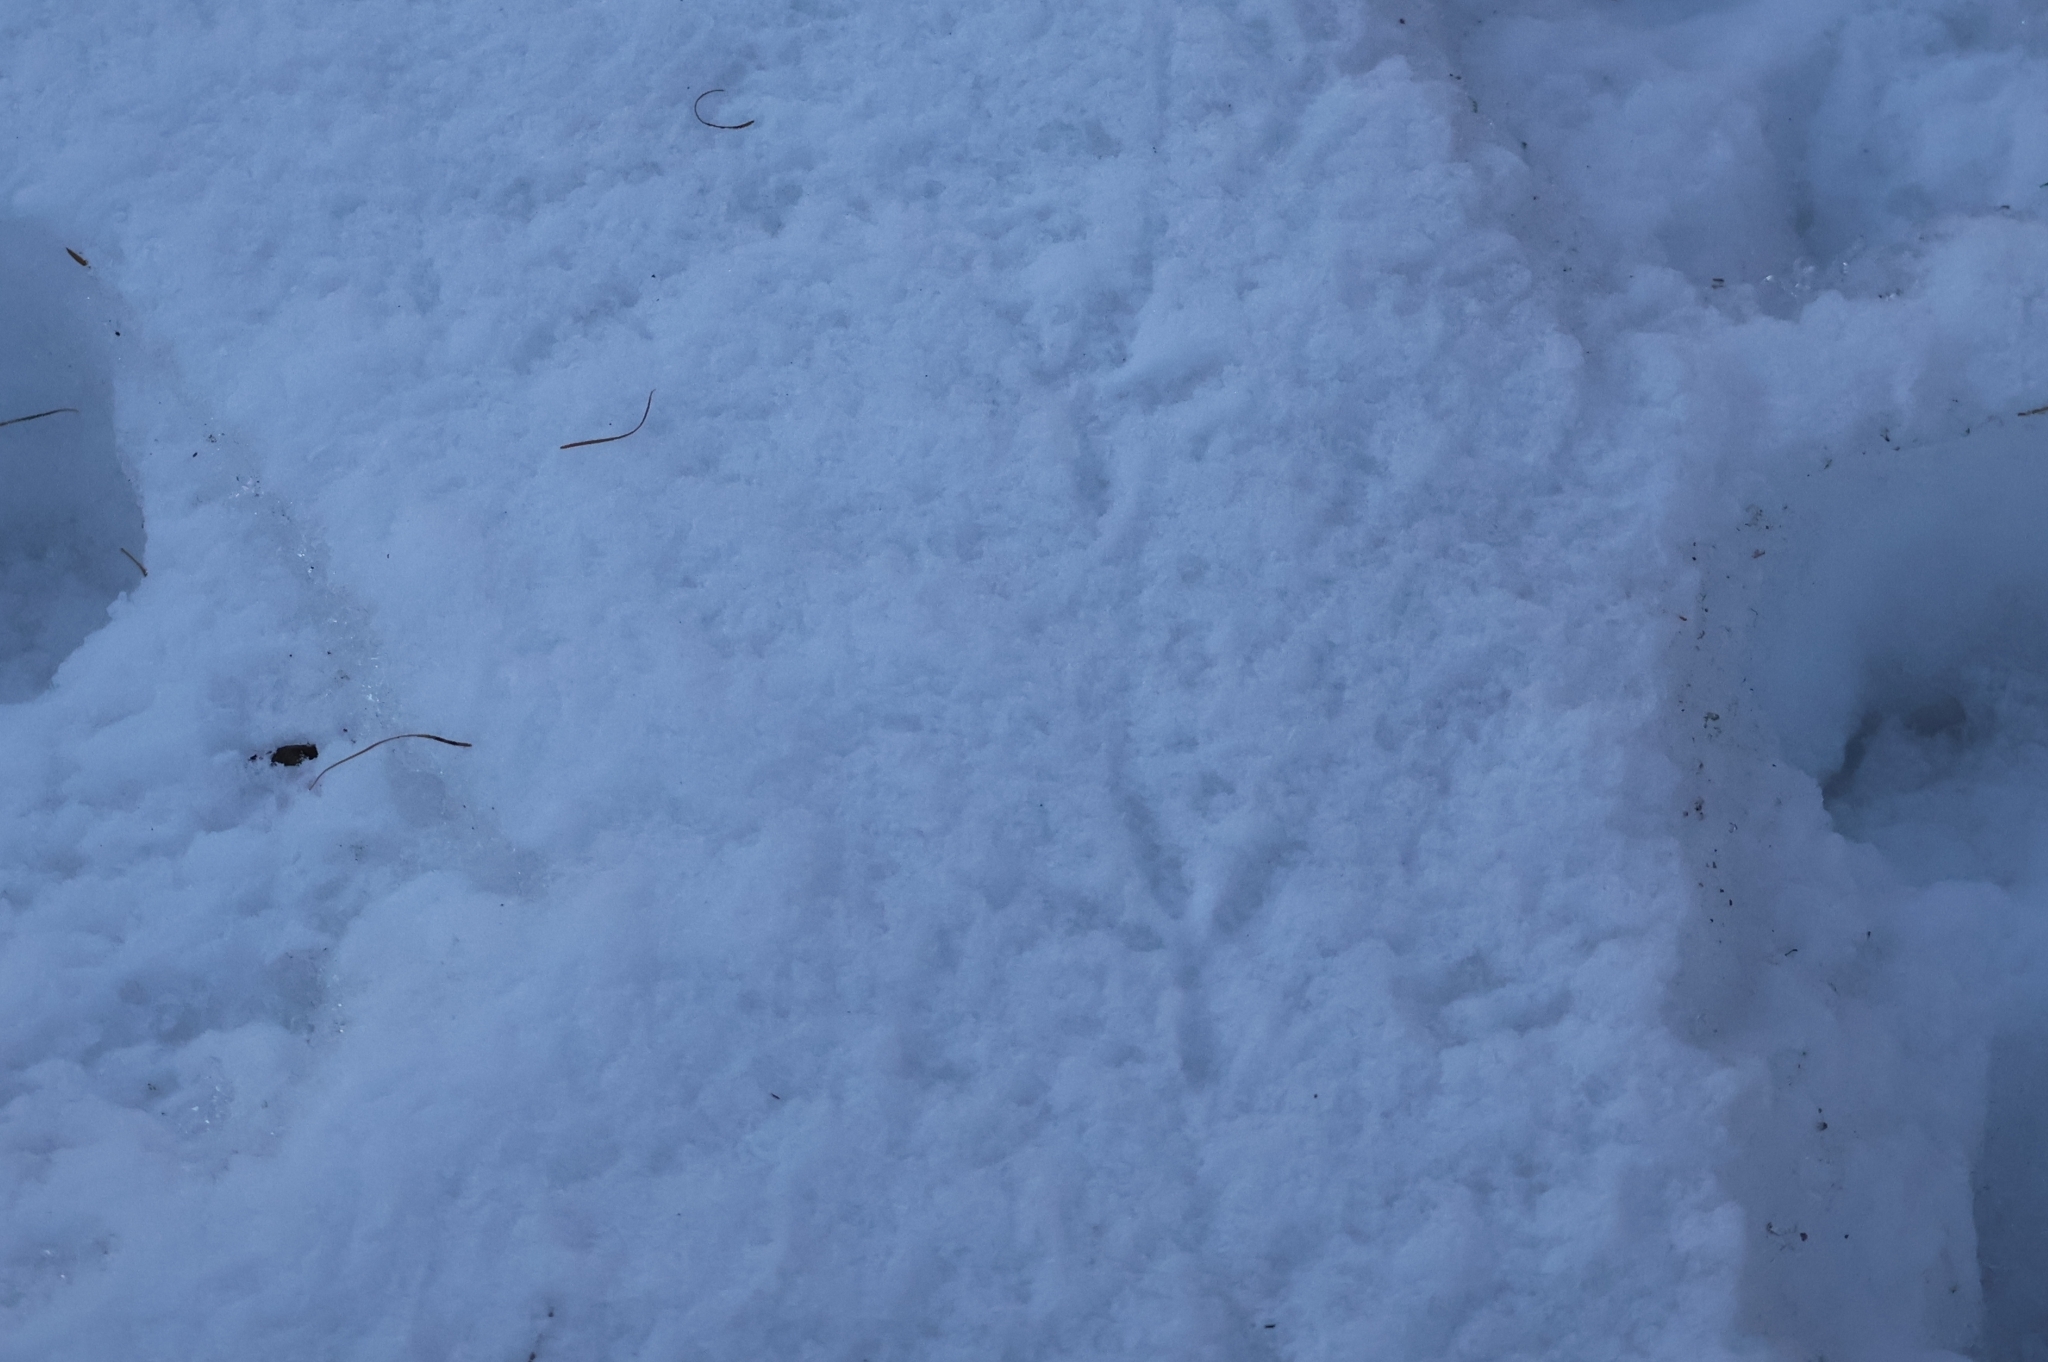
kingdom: Animalia
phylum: Chordata
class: Aves
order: Columbiformes
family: Columbidae
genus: Columba
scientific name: Columba livia
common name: Rock pigeon
